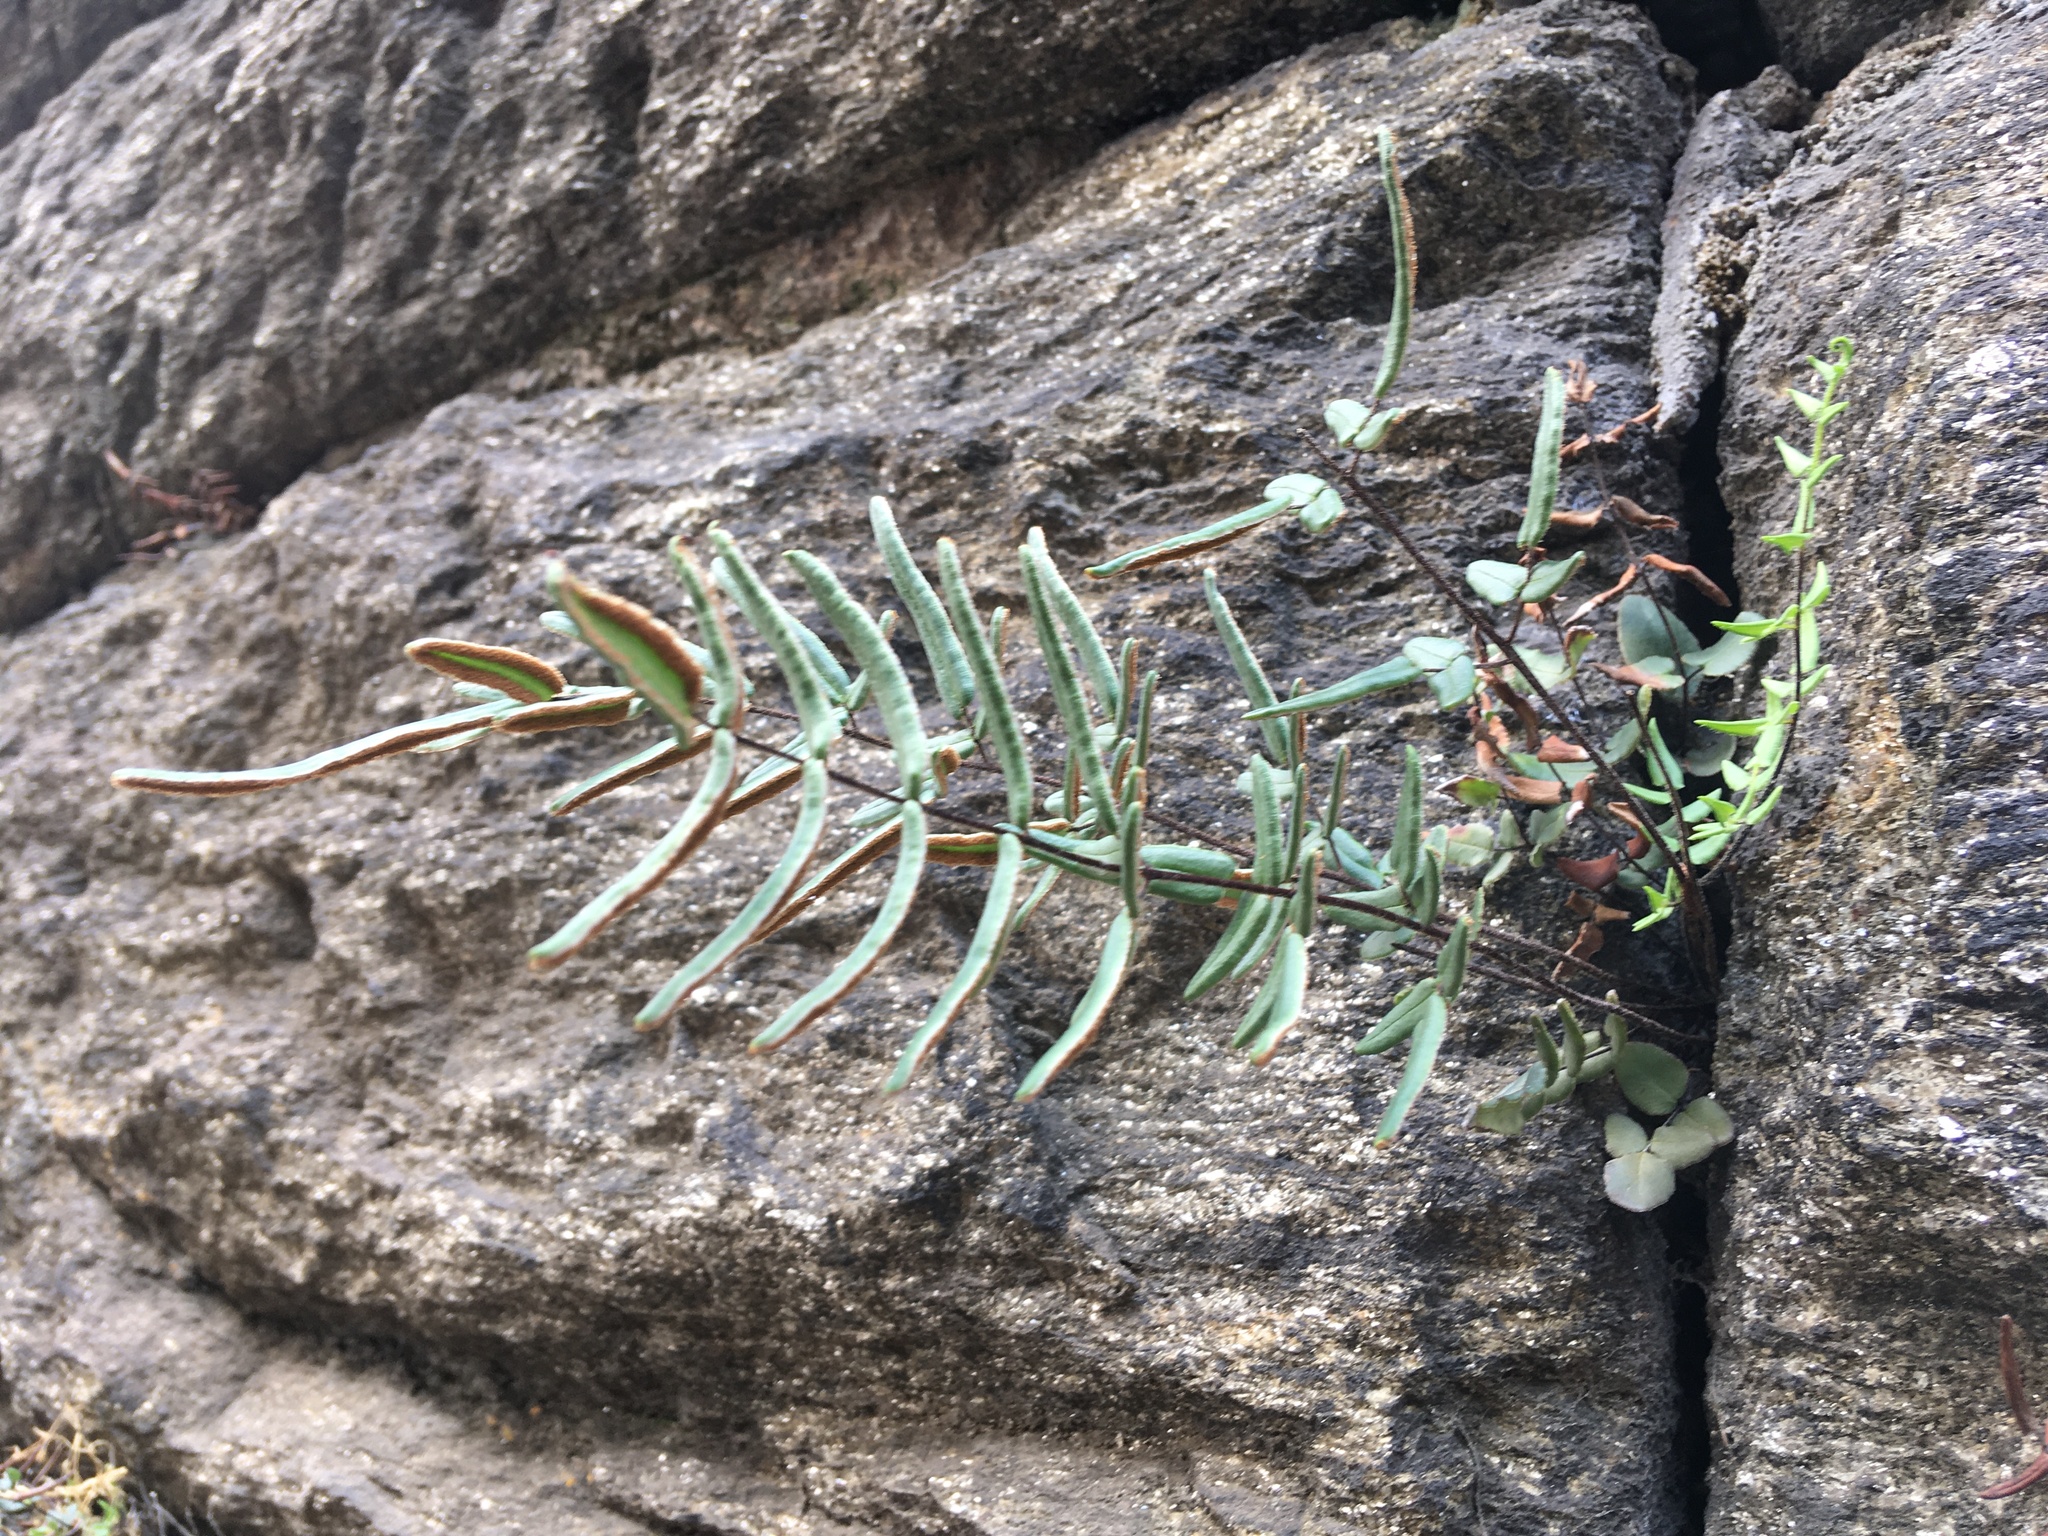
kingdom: Plantae
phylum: Tracheophyta
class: Polypodiopsida
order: Polypodiales
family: Pteridaceae
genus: Pellaea
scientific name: Pellaea atropurpurea
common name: Hairy cliffbrake
